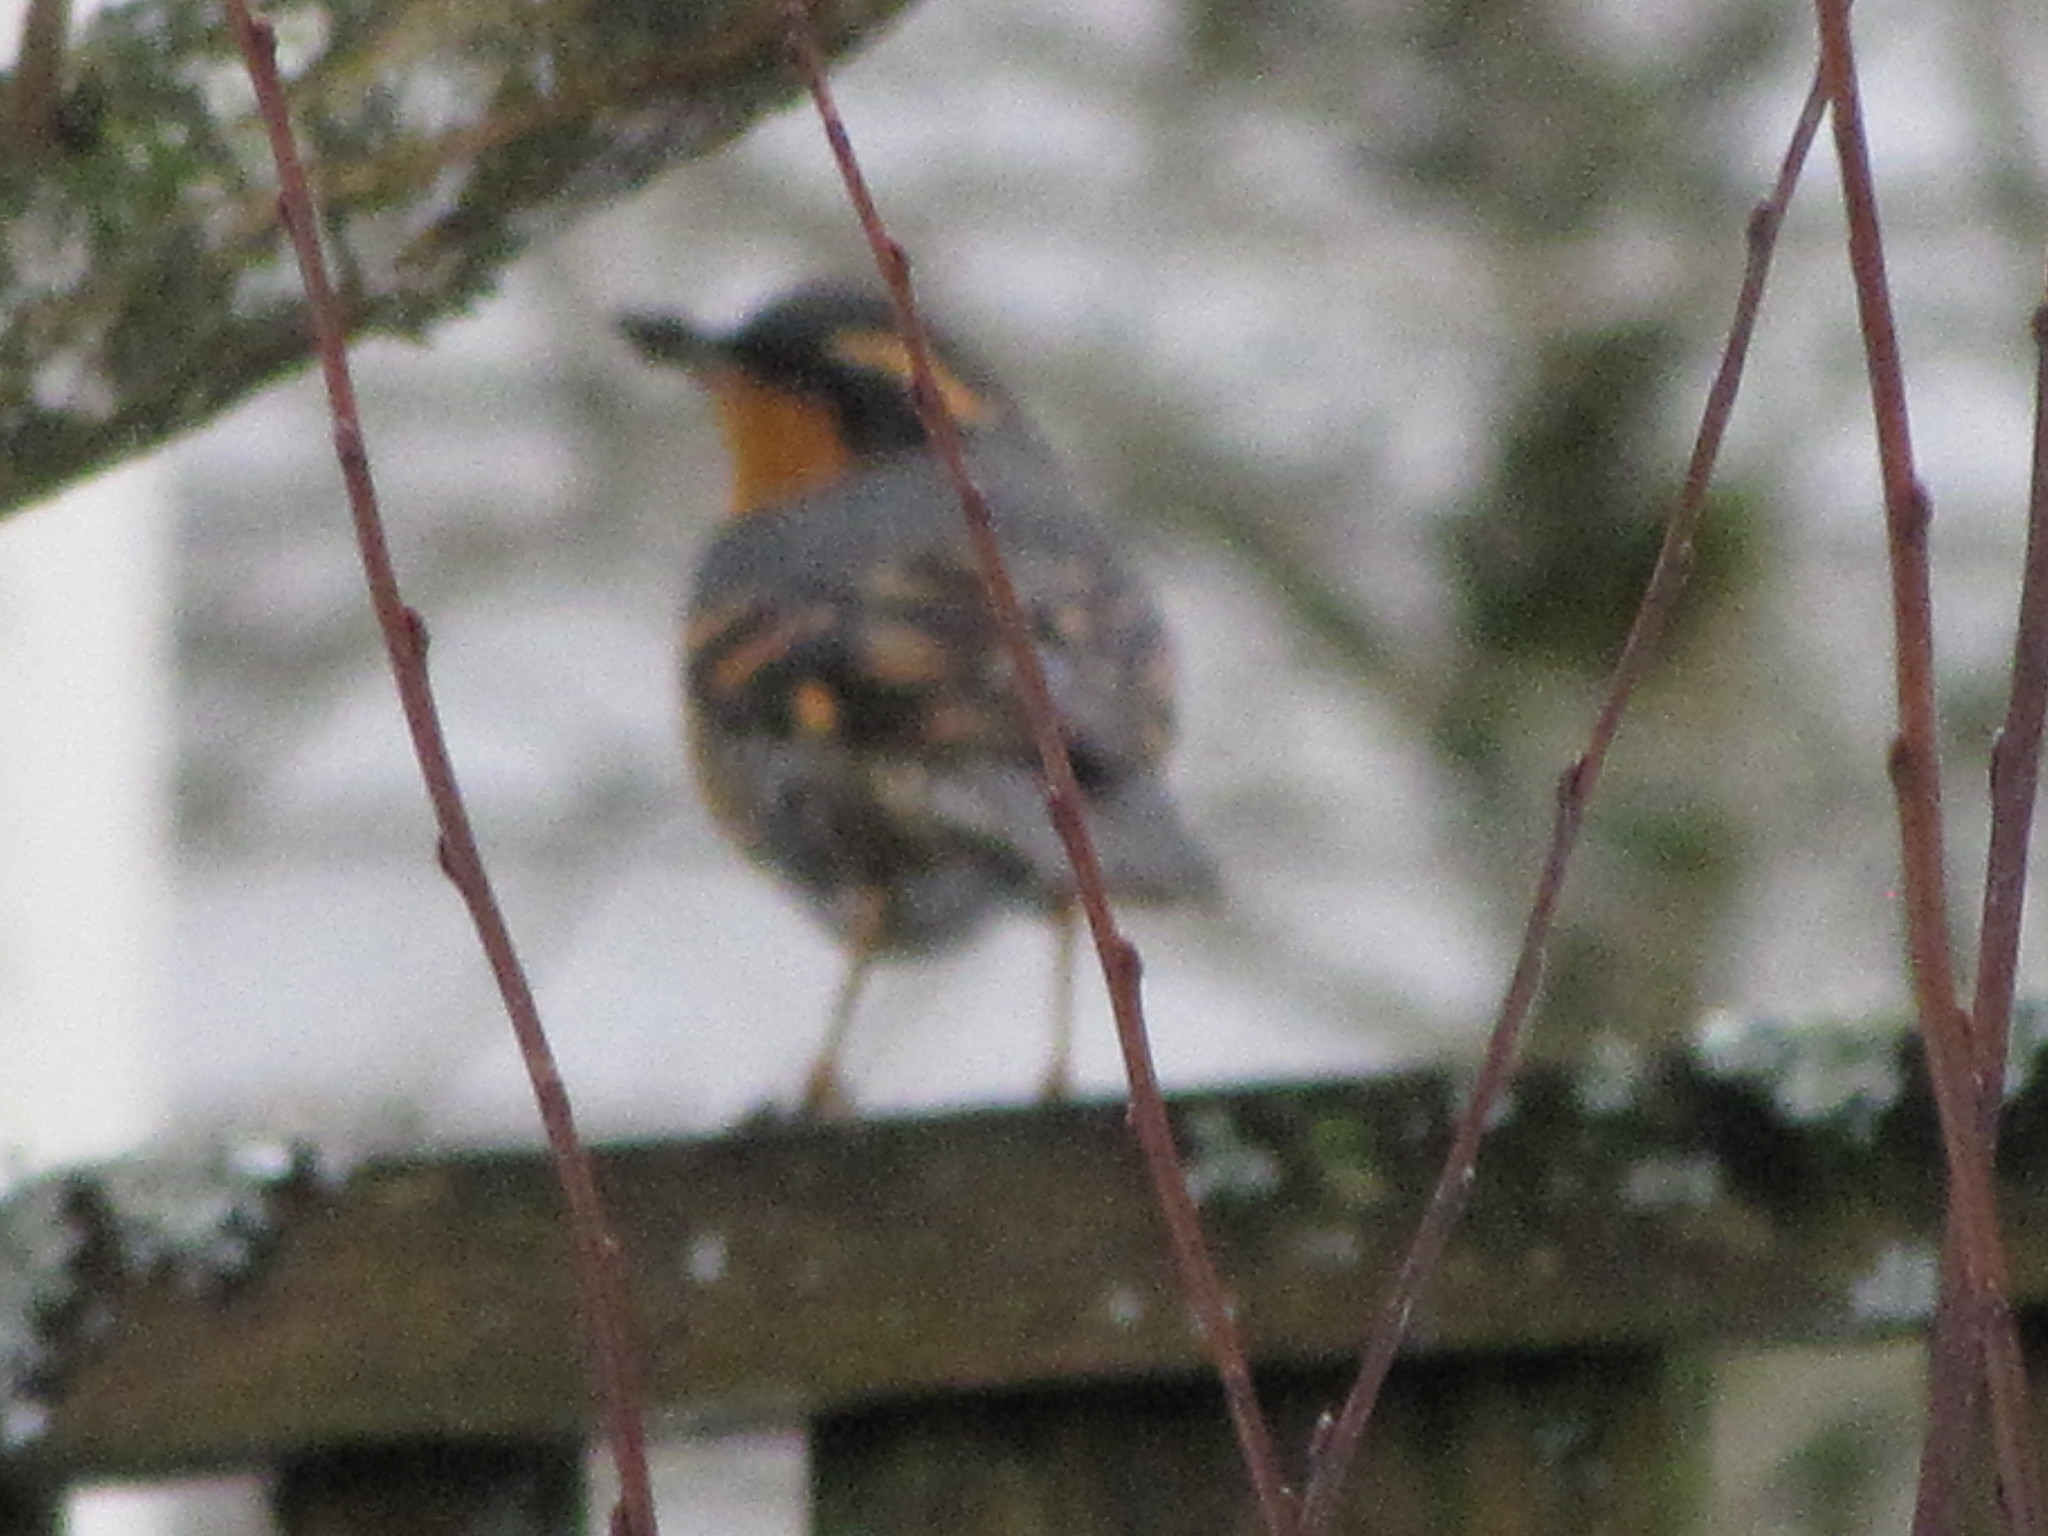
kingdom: Animalia
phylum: Chordata
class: Aves
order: Passeriformes
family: Turdidae
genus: Ixoreus
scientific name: Ixoreus naevius
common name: Varied thrush
